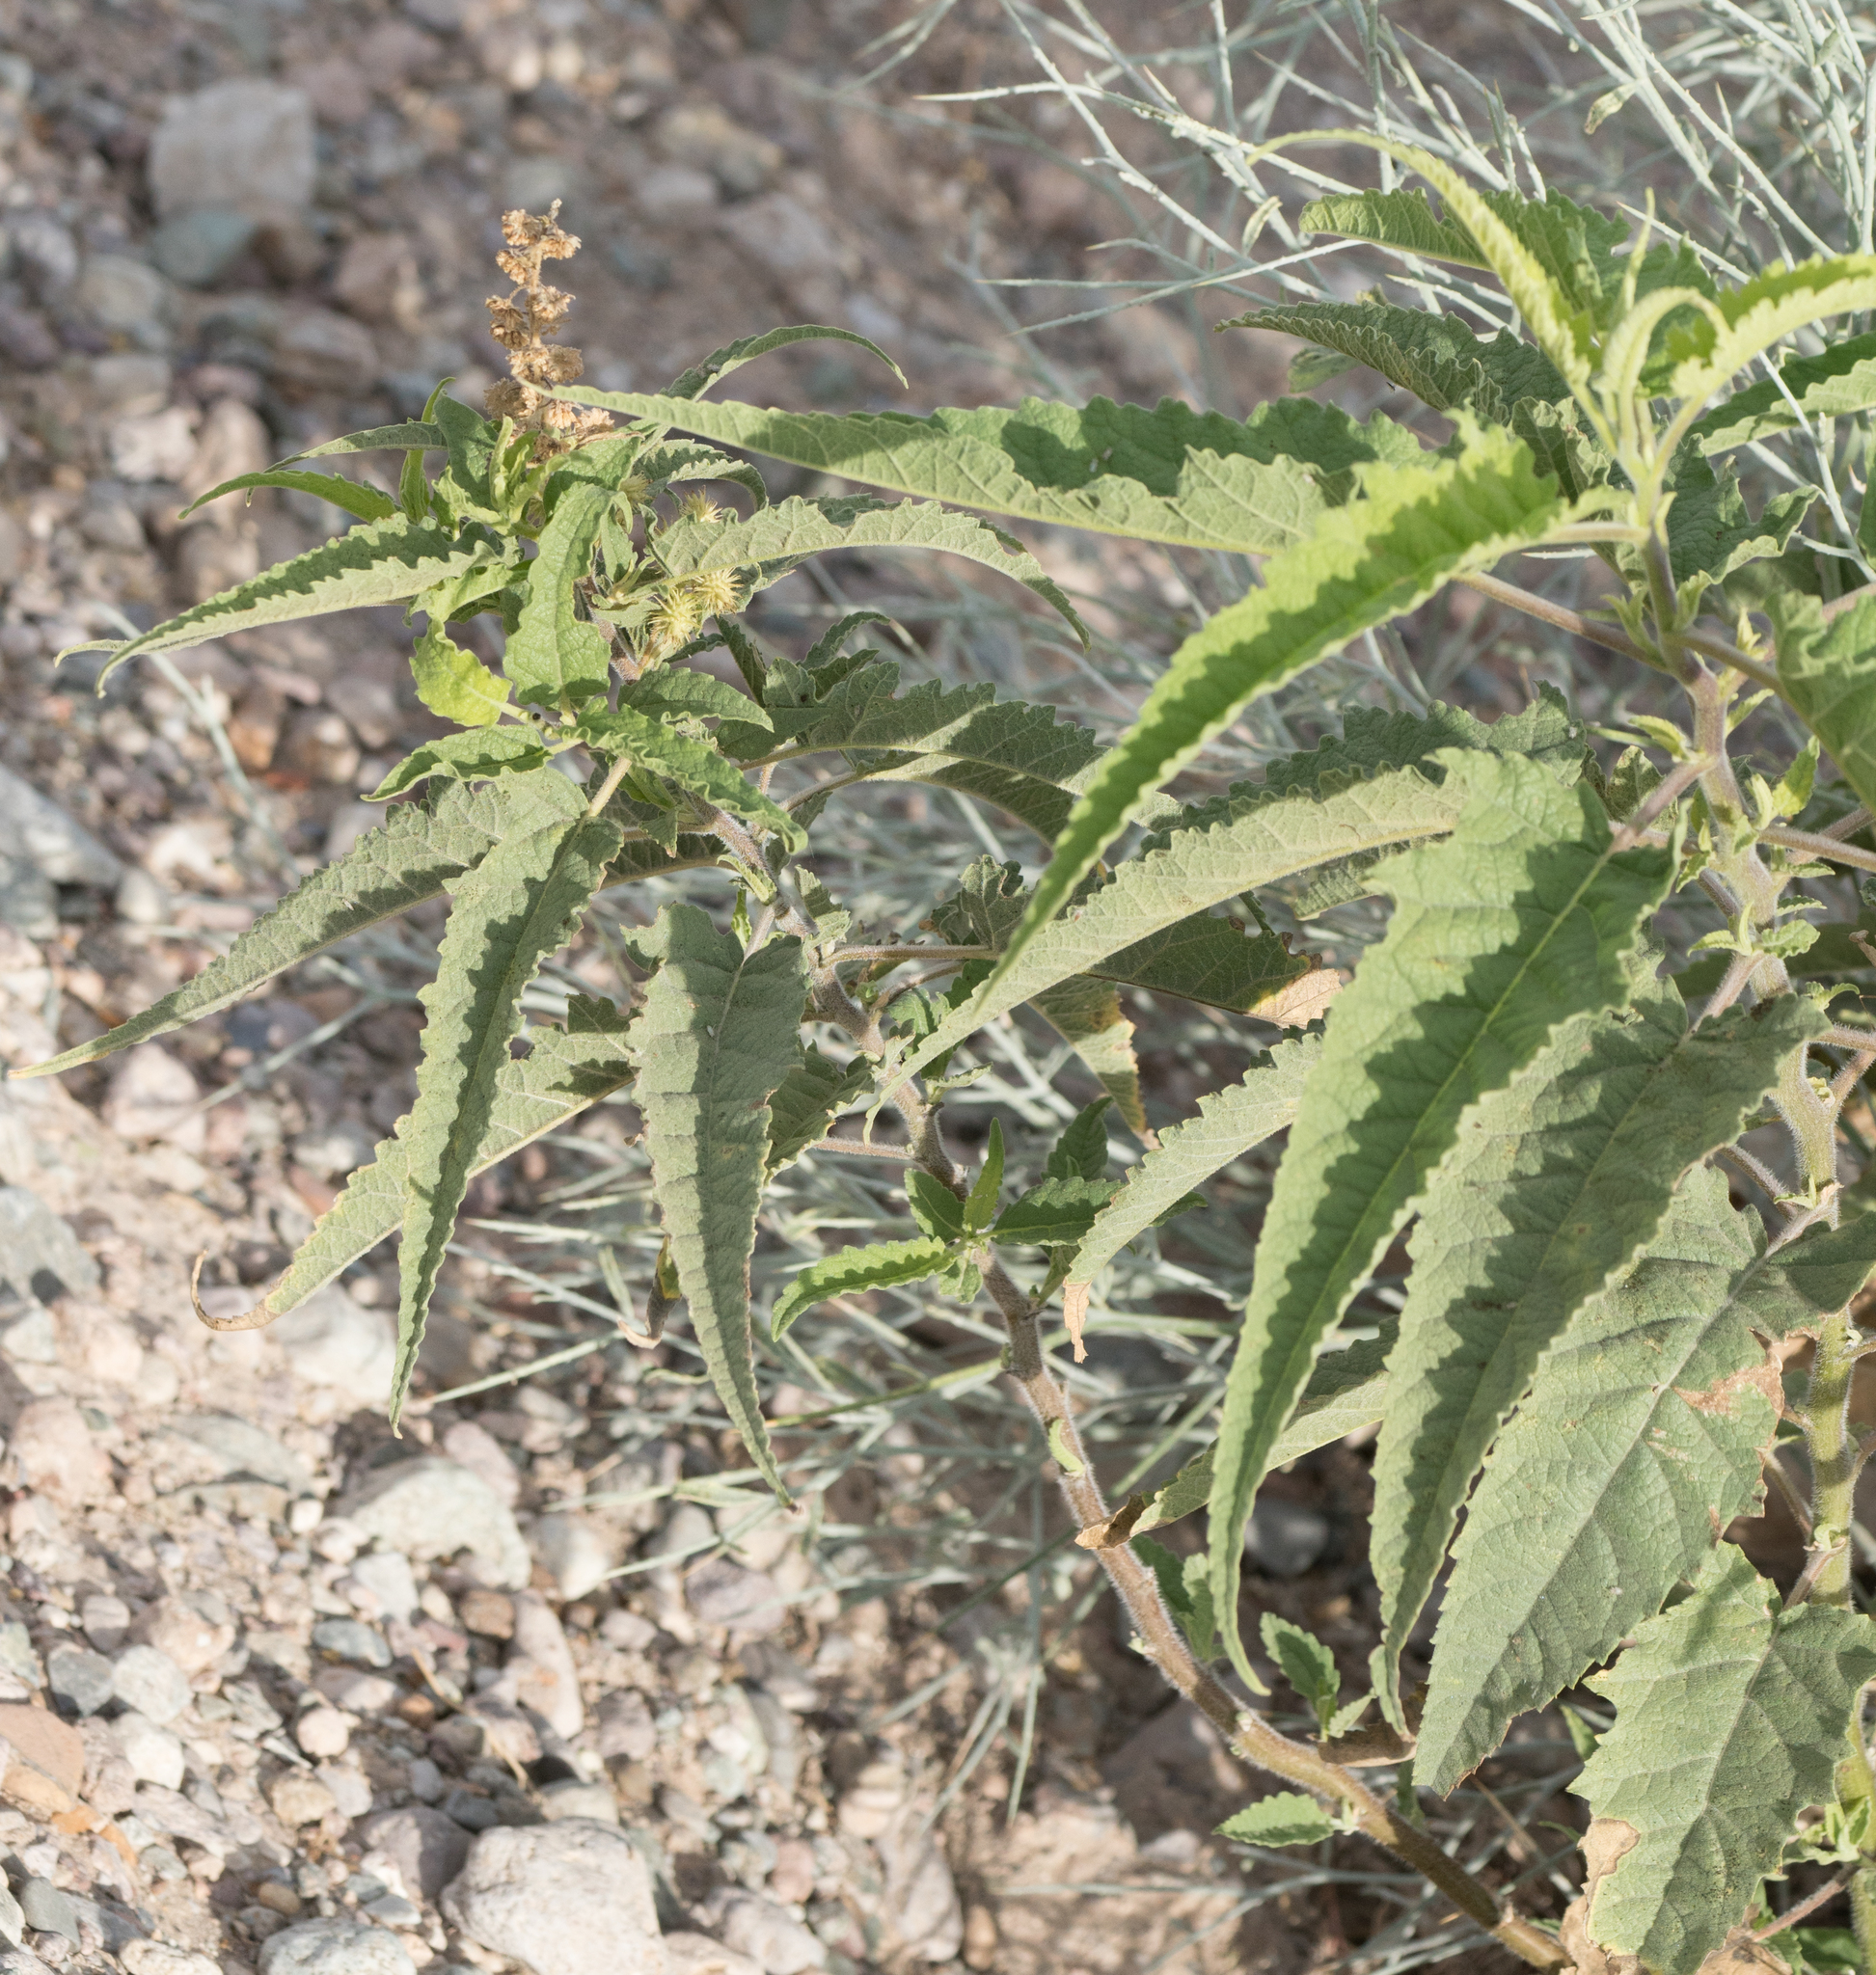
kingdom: Plantae
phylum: Tracheophyta
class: Magnoliopsida
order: Asterales
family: Asteraceae
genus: Ambrosia
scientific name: Ambrosia ambrosioides
